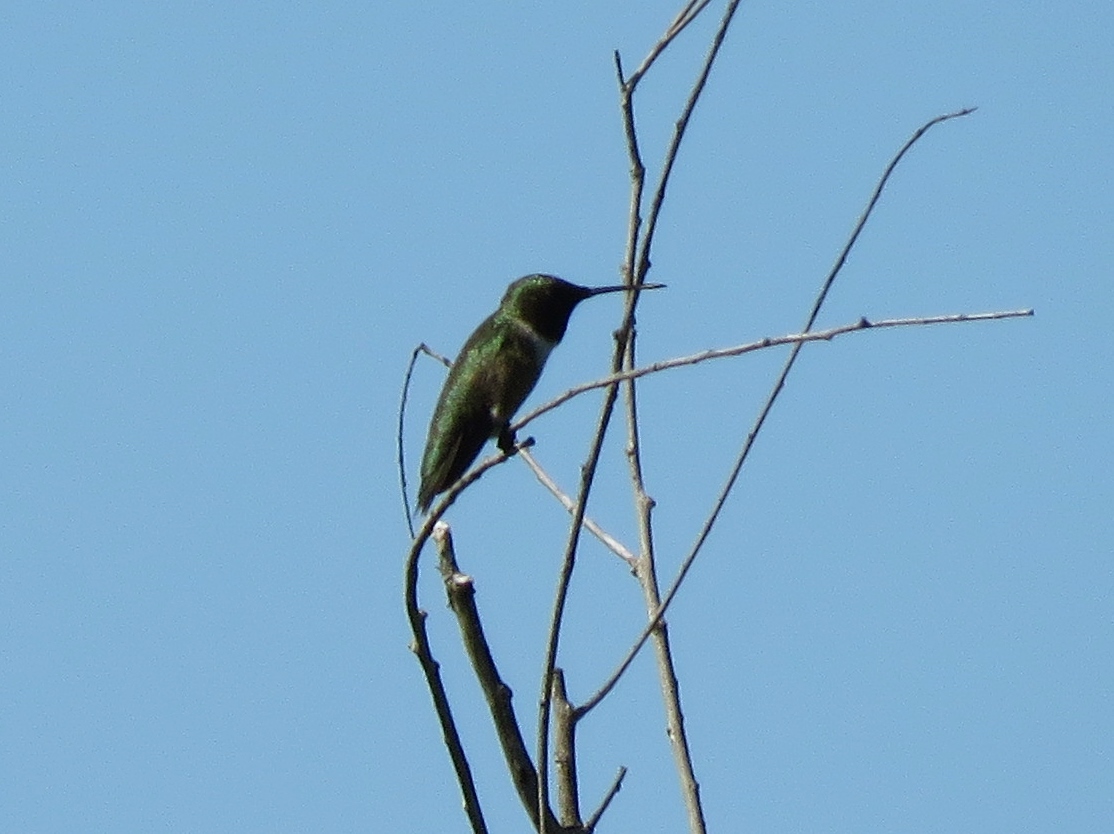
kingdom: Animalia
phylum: Chordata
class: Aves
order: Apodiformes
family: Trochilidae
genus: Archilochus
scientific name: Archilochus alexandri
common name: Black-chinned hummingbird
